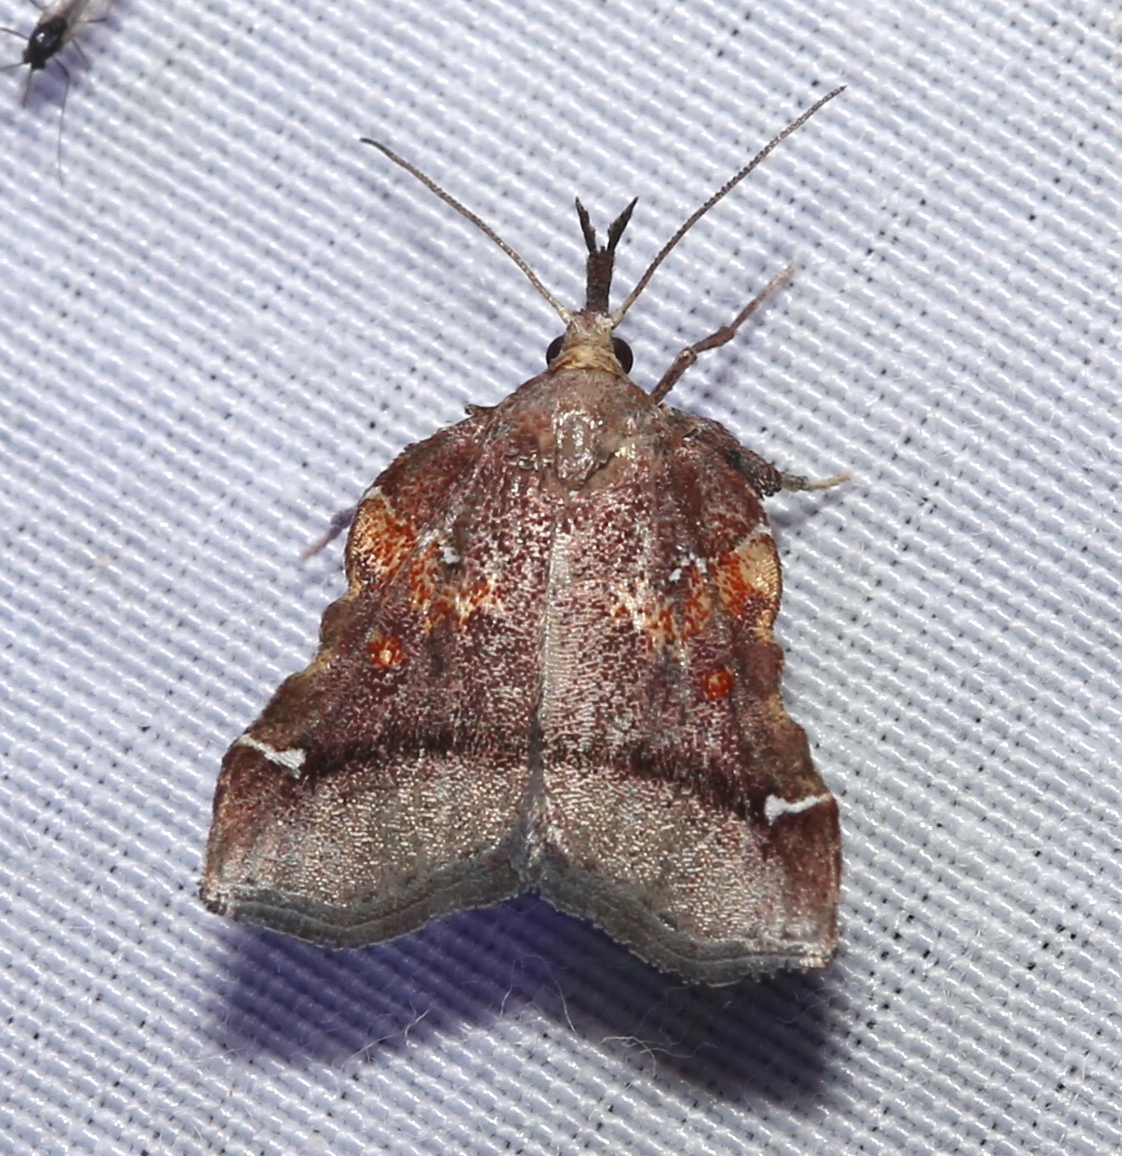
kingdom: Animalia
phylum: Arthropoda
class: Insecta
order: Lepidoptera
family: Pyralidae
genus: Clydonopteron
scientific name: Clydonopteron sacculana
